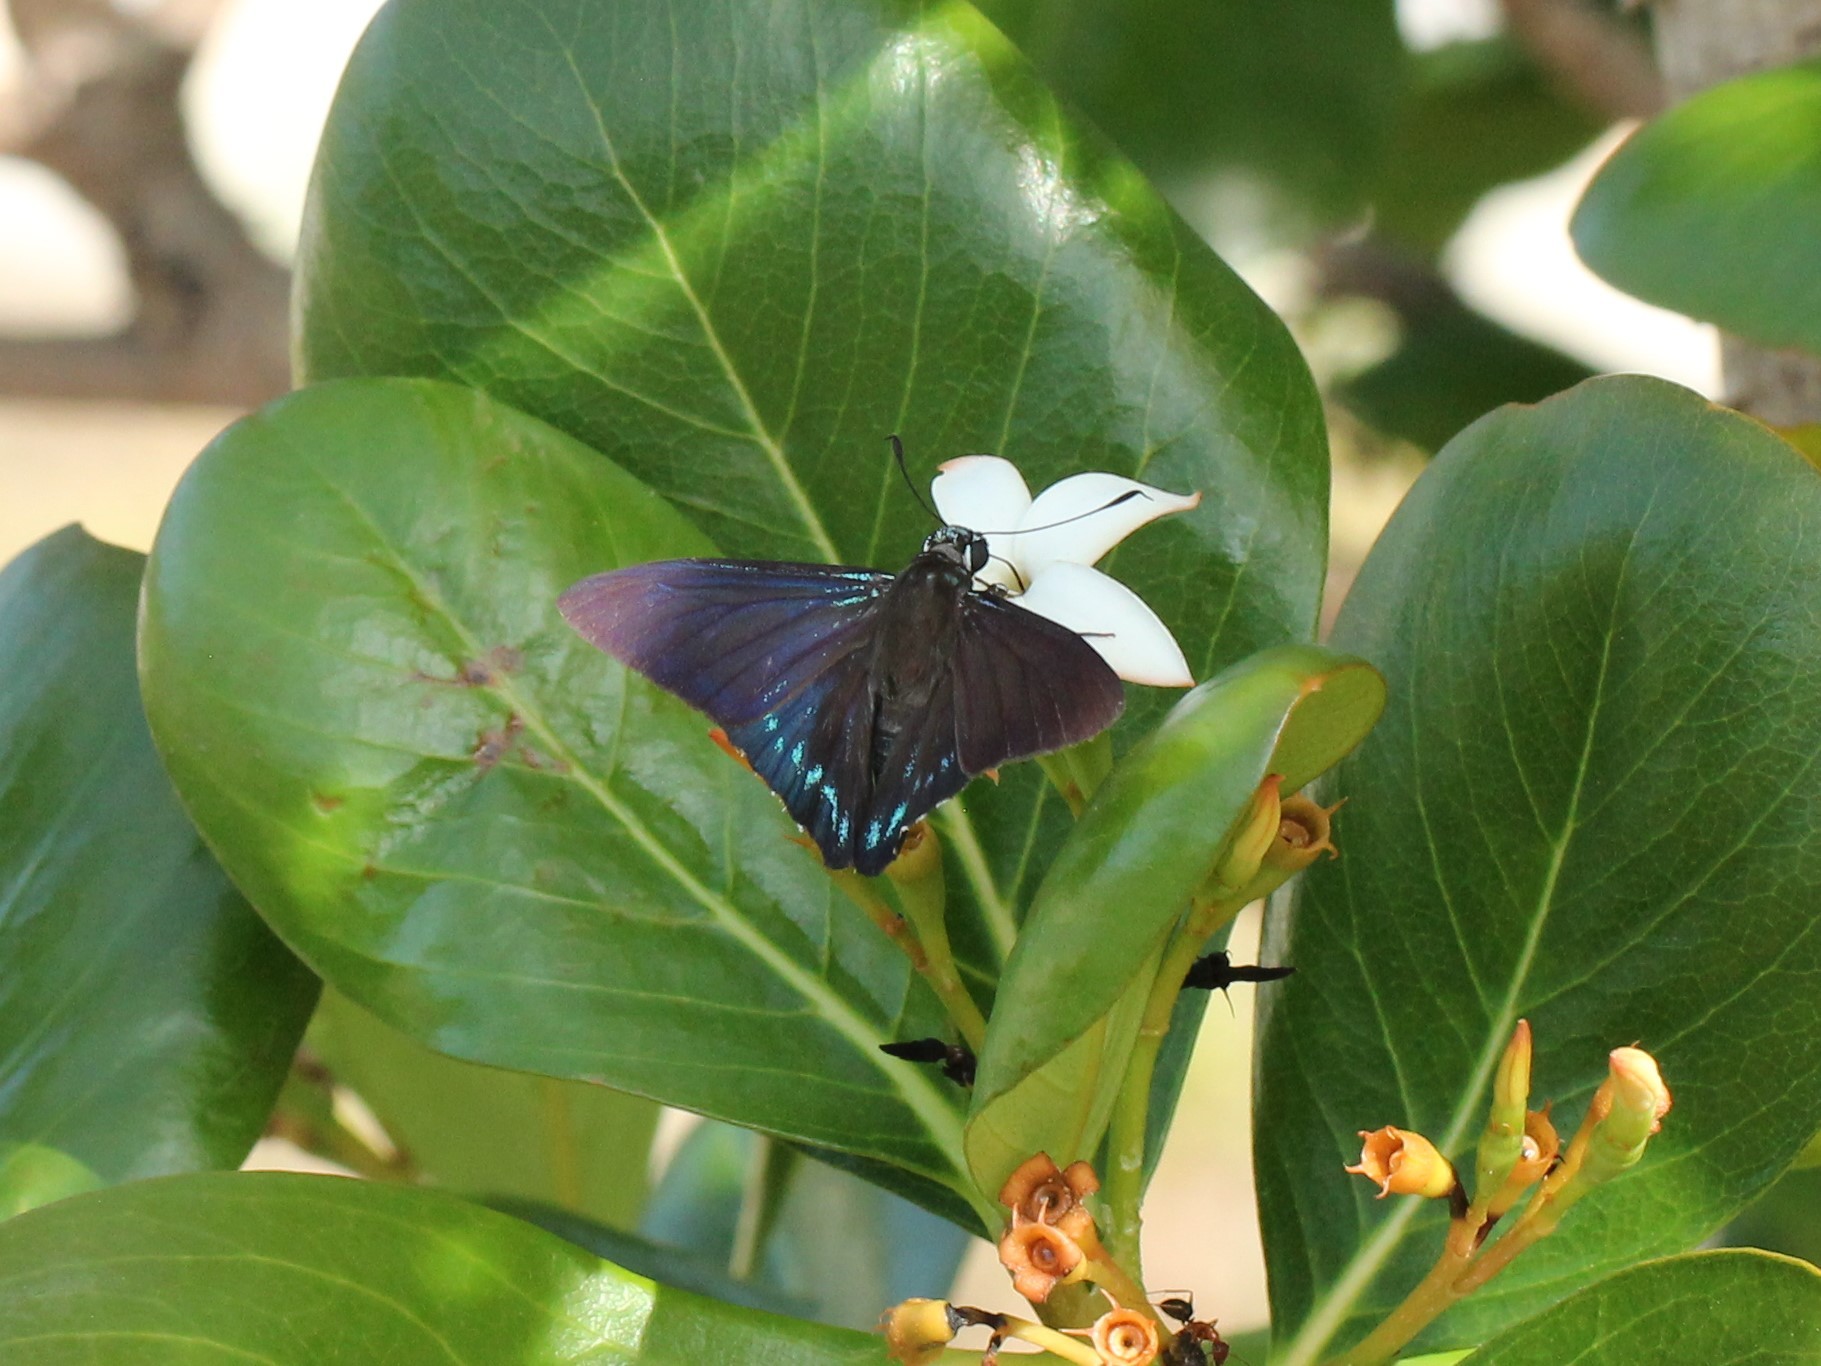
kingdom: Animalia
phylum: Arthropoda
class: Insecta
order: Lepidoptera
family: Hesperiidae
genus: Phocides
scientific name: Phocides pigmalion
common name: Mangrove skipper
